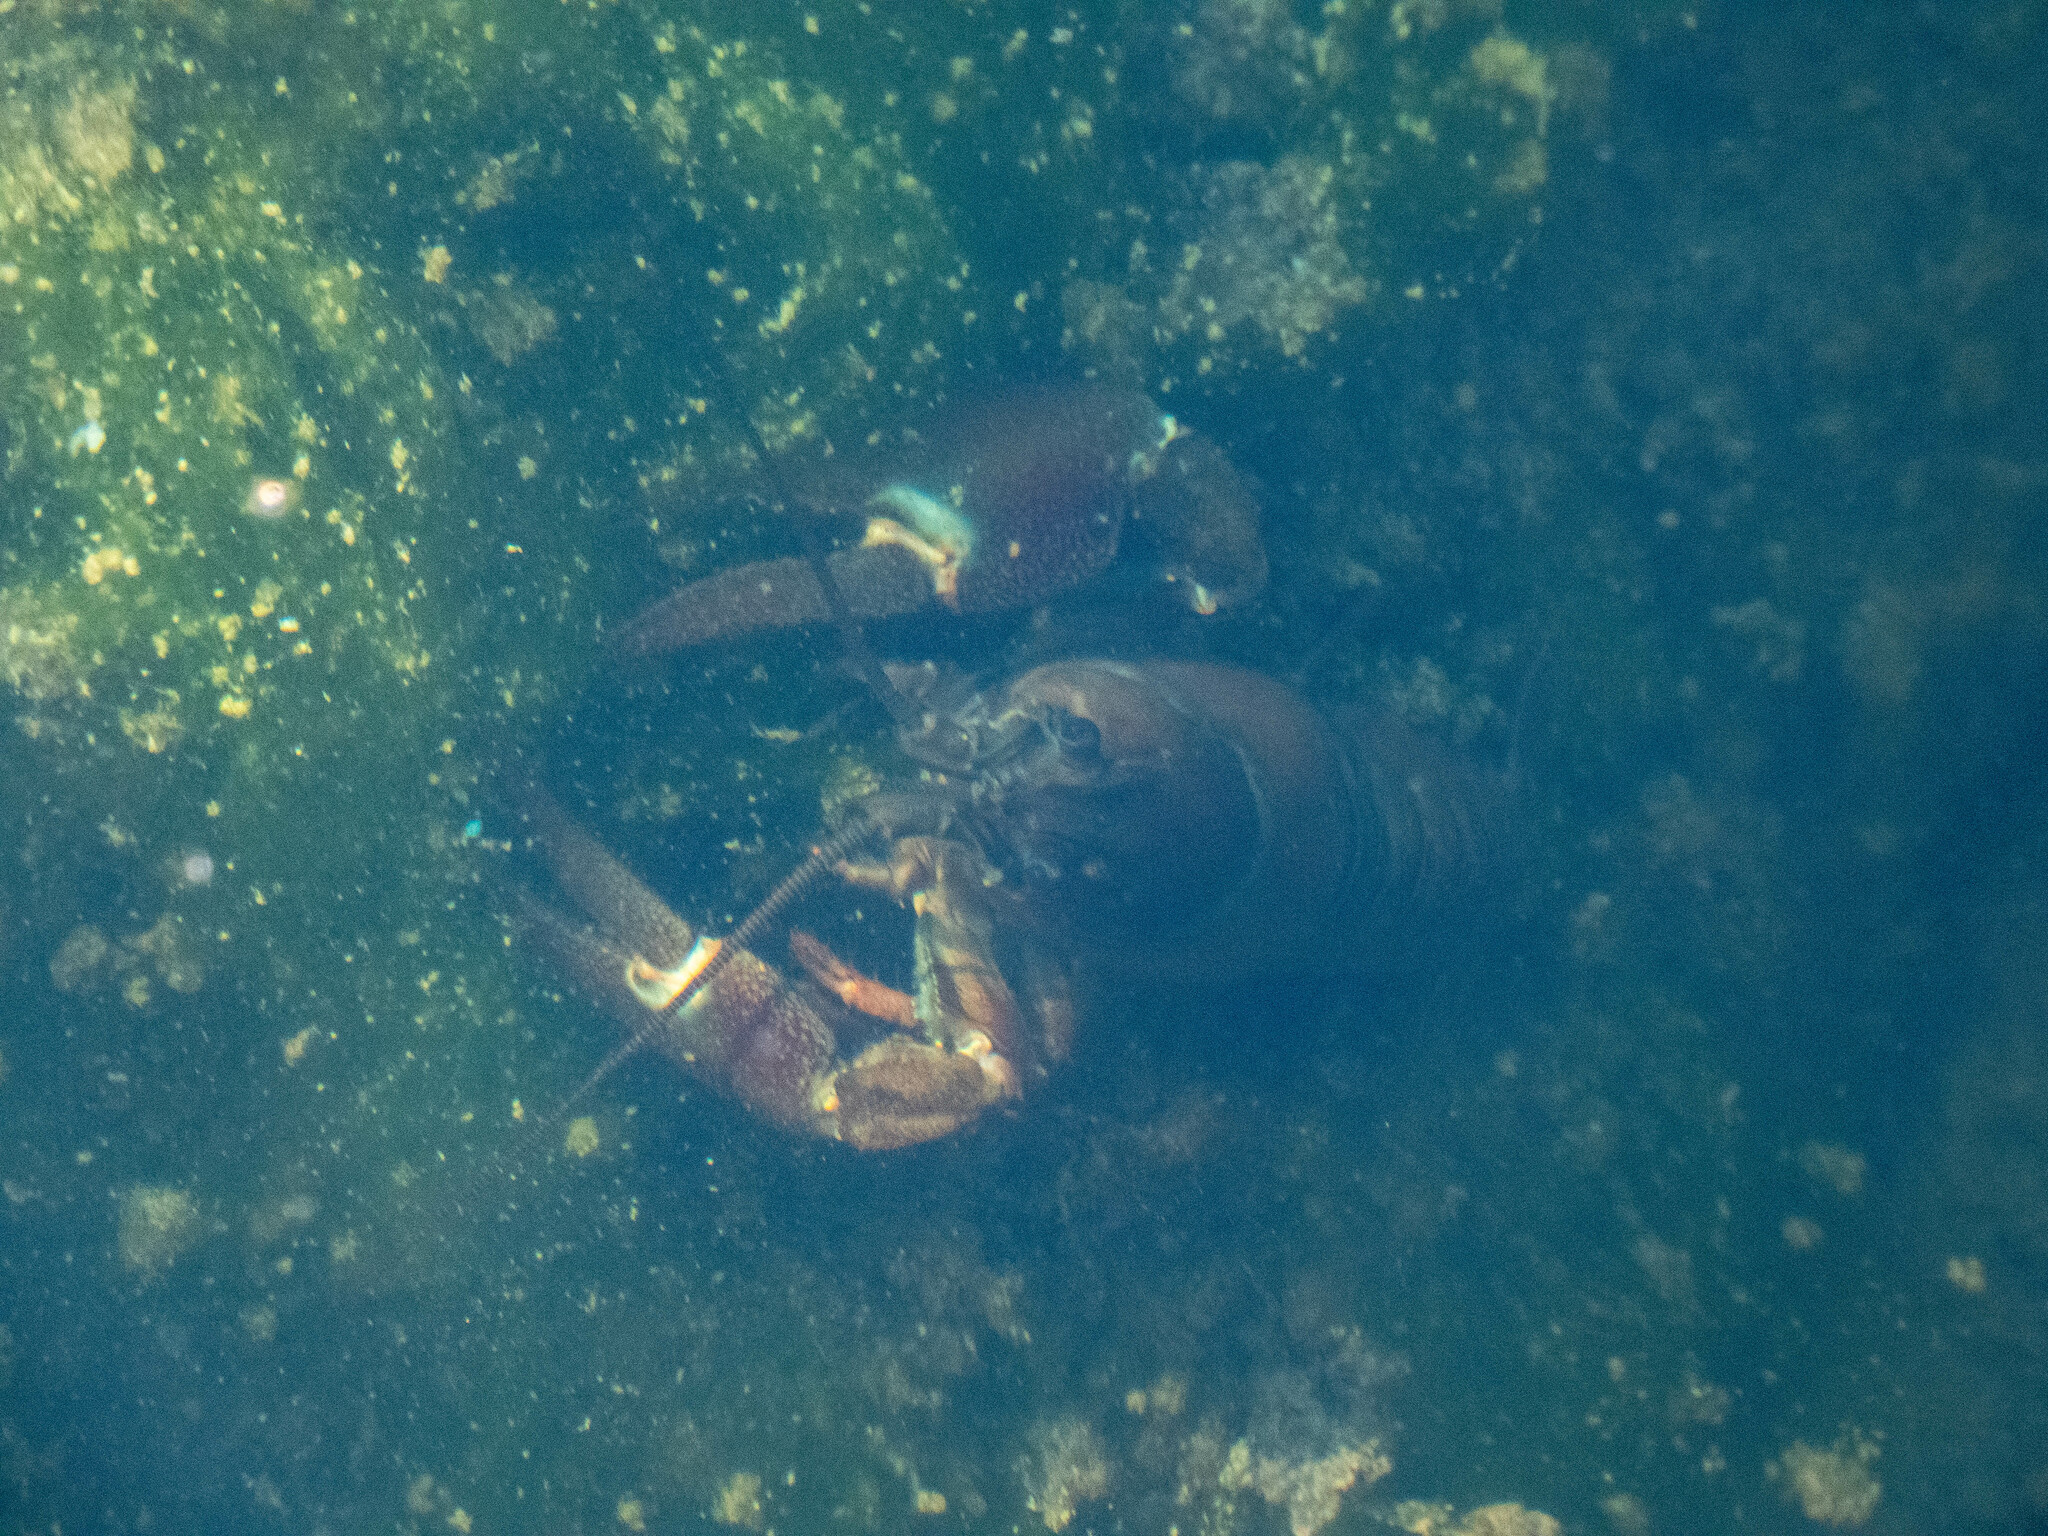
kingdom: Animalia
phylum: Arthropoda
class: Malacostraca
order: Decapoda
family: Astacidae
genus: Pacifastacus
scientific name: Pacifastacus leniusculus
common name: Signal crayfish
